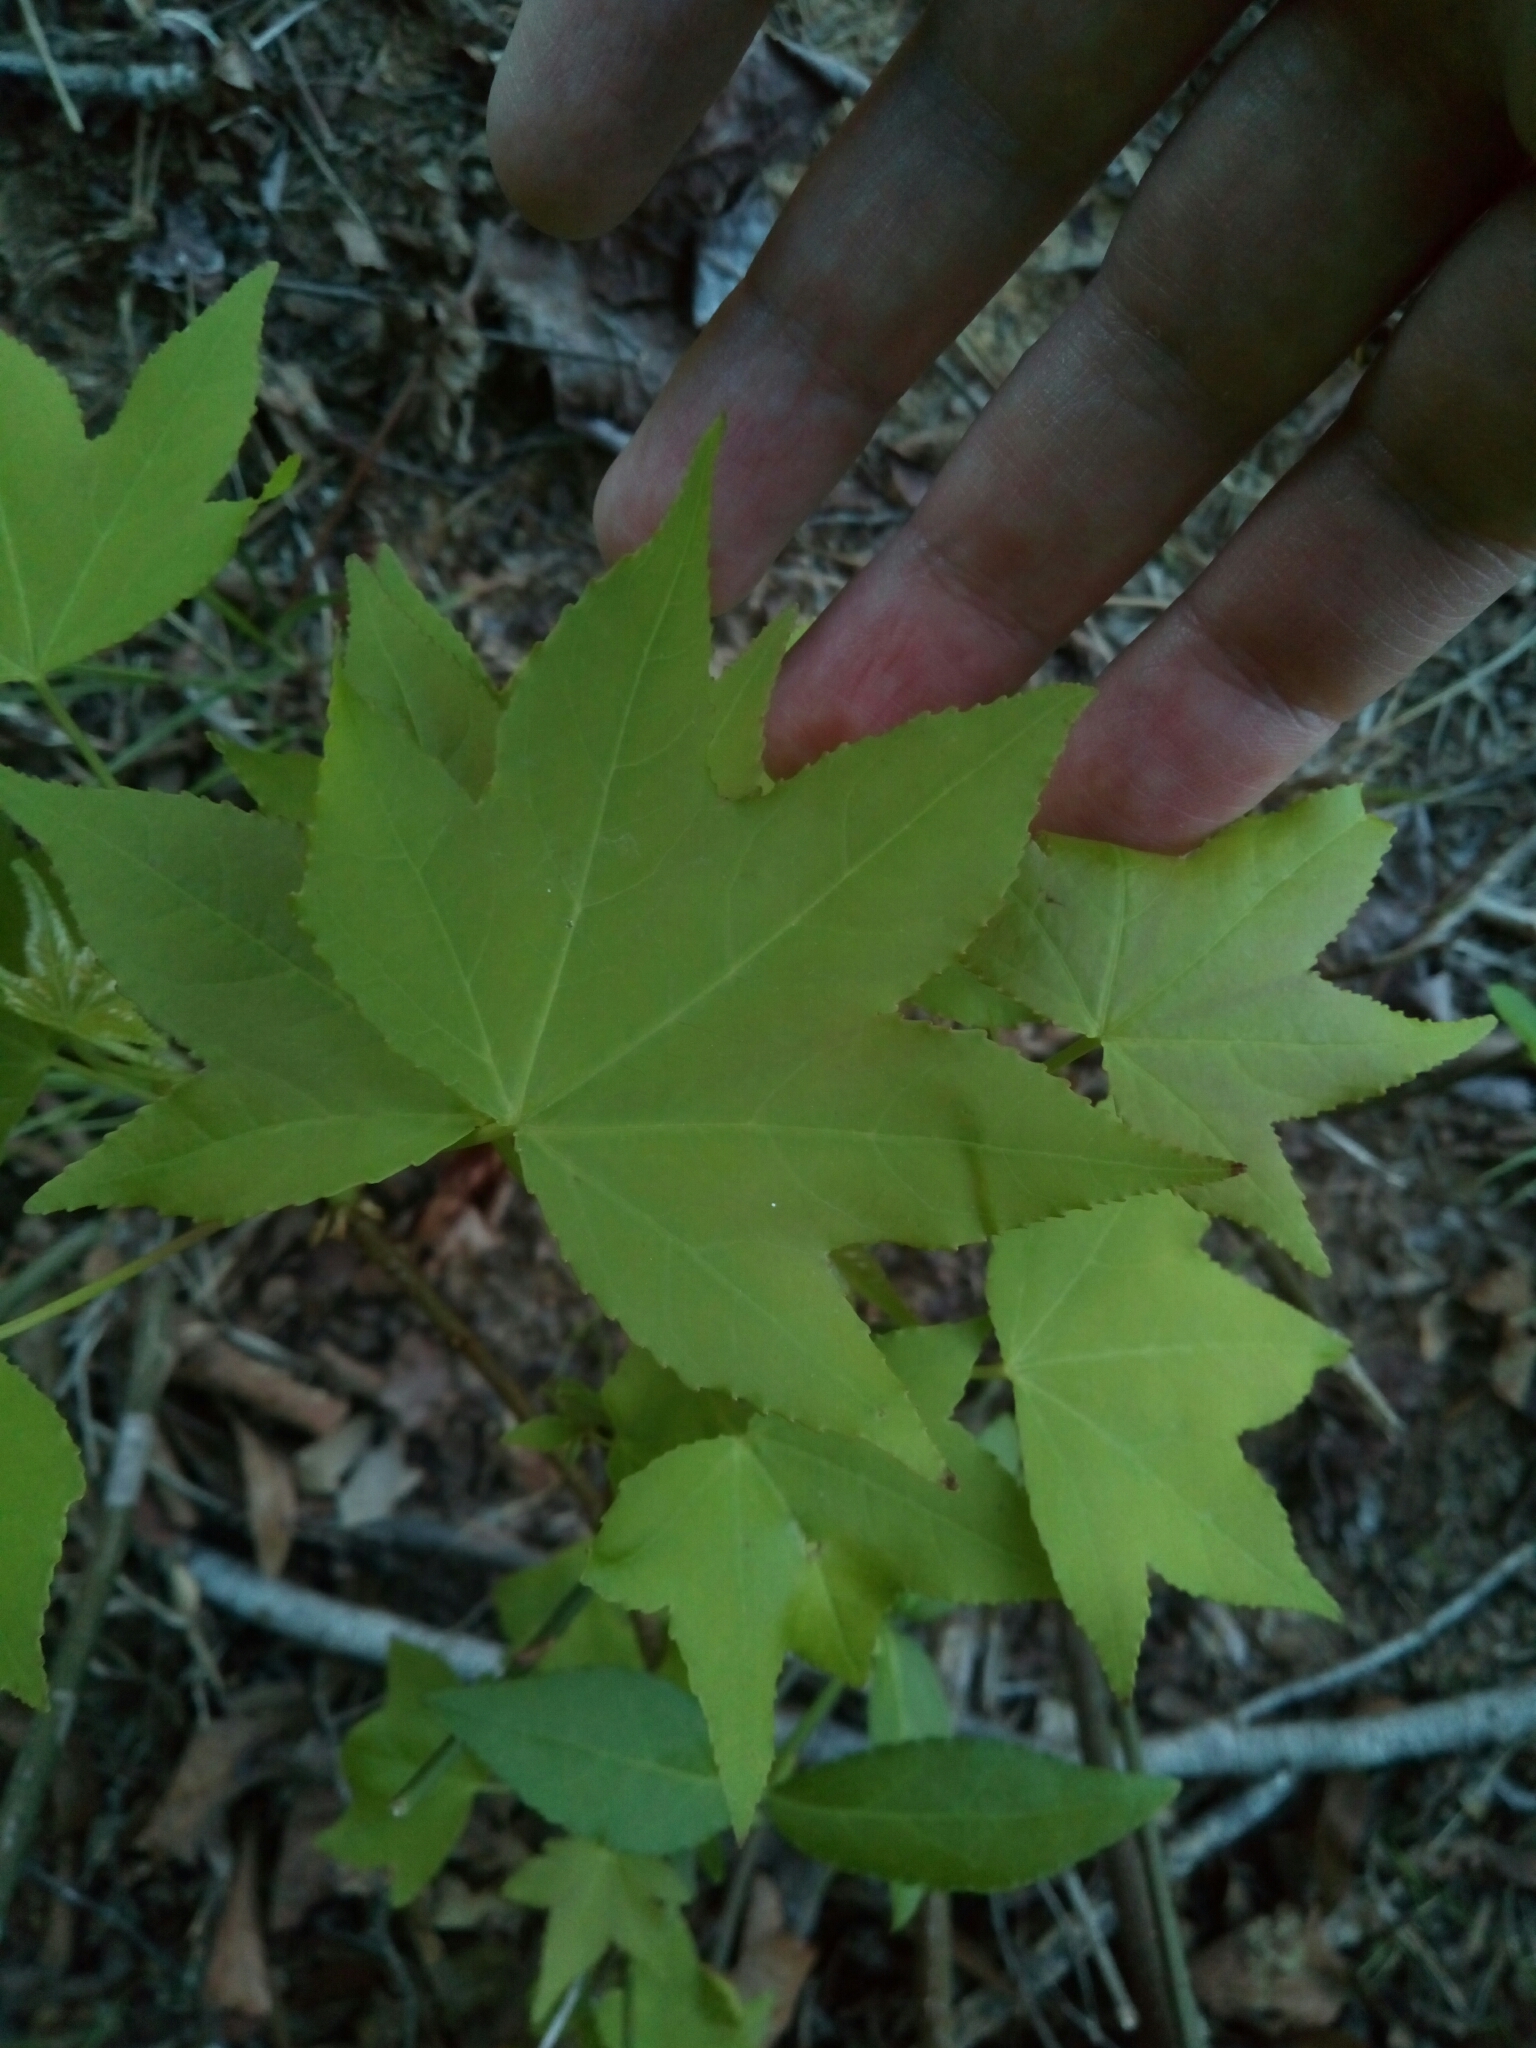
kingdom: Plantae
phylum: Tracheophyta
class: Magnoliopsida
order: Saxifragales
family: Altingiaceae
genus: Liquidambar
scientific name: Liquidambar styraciflua
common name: Sweet gum
